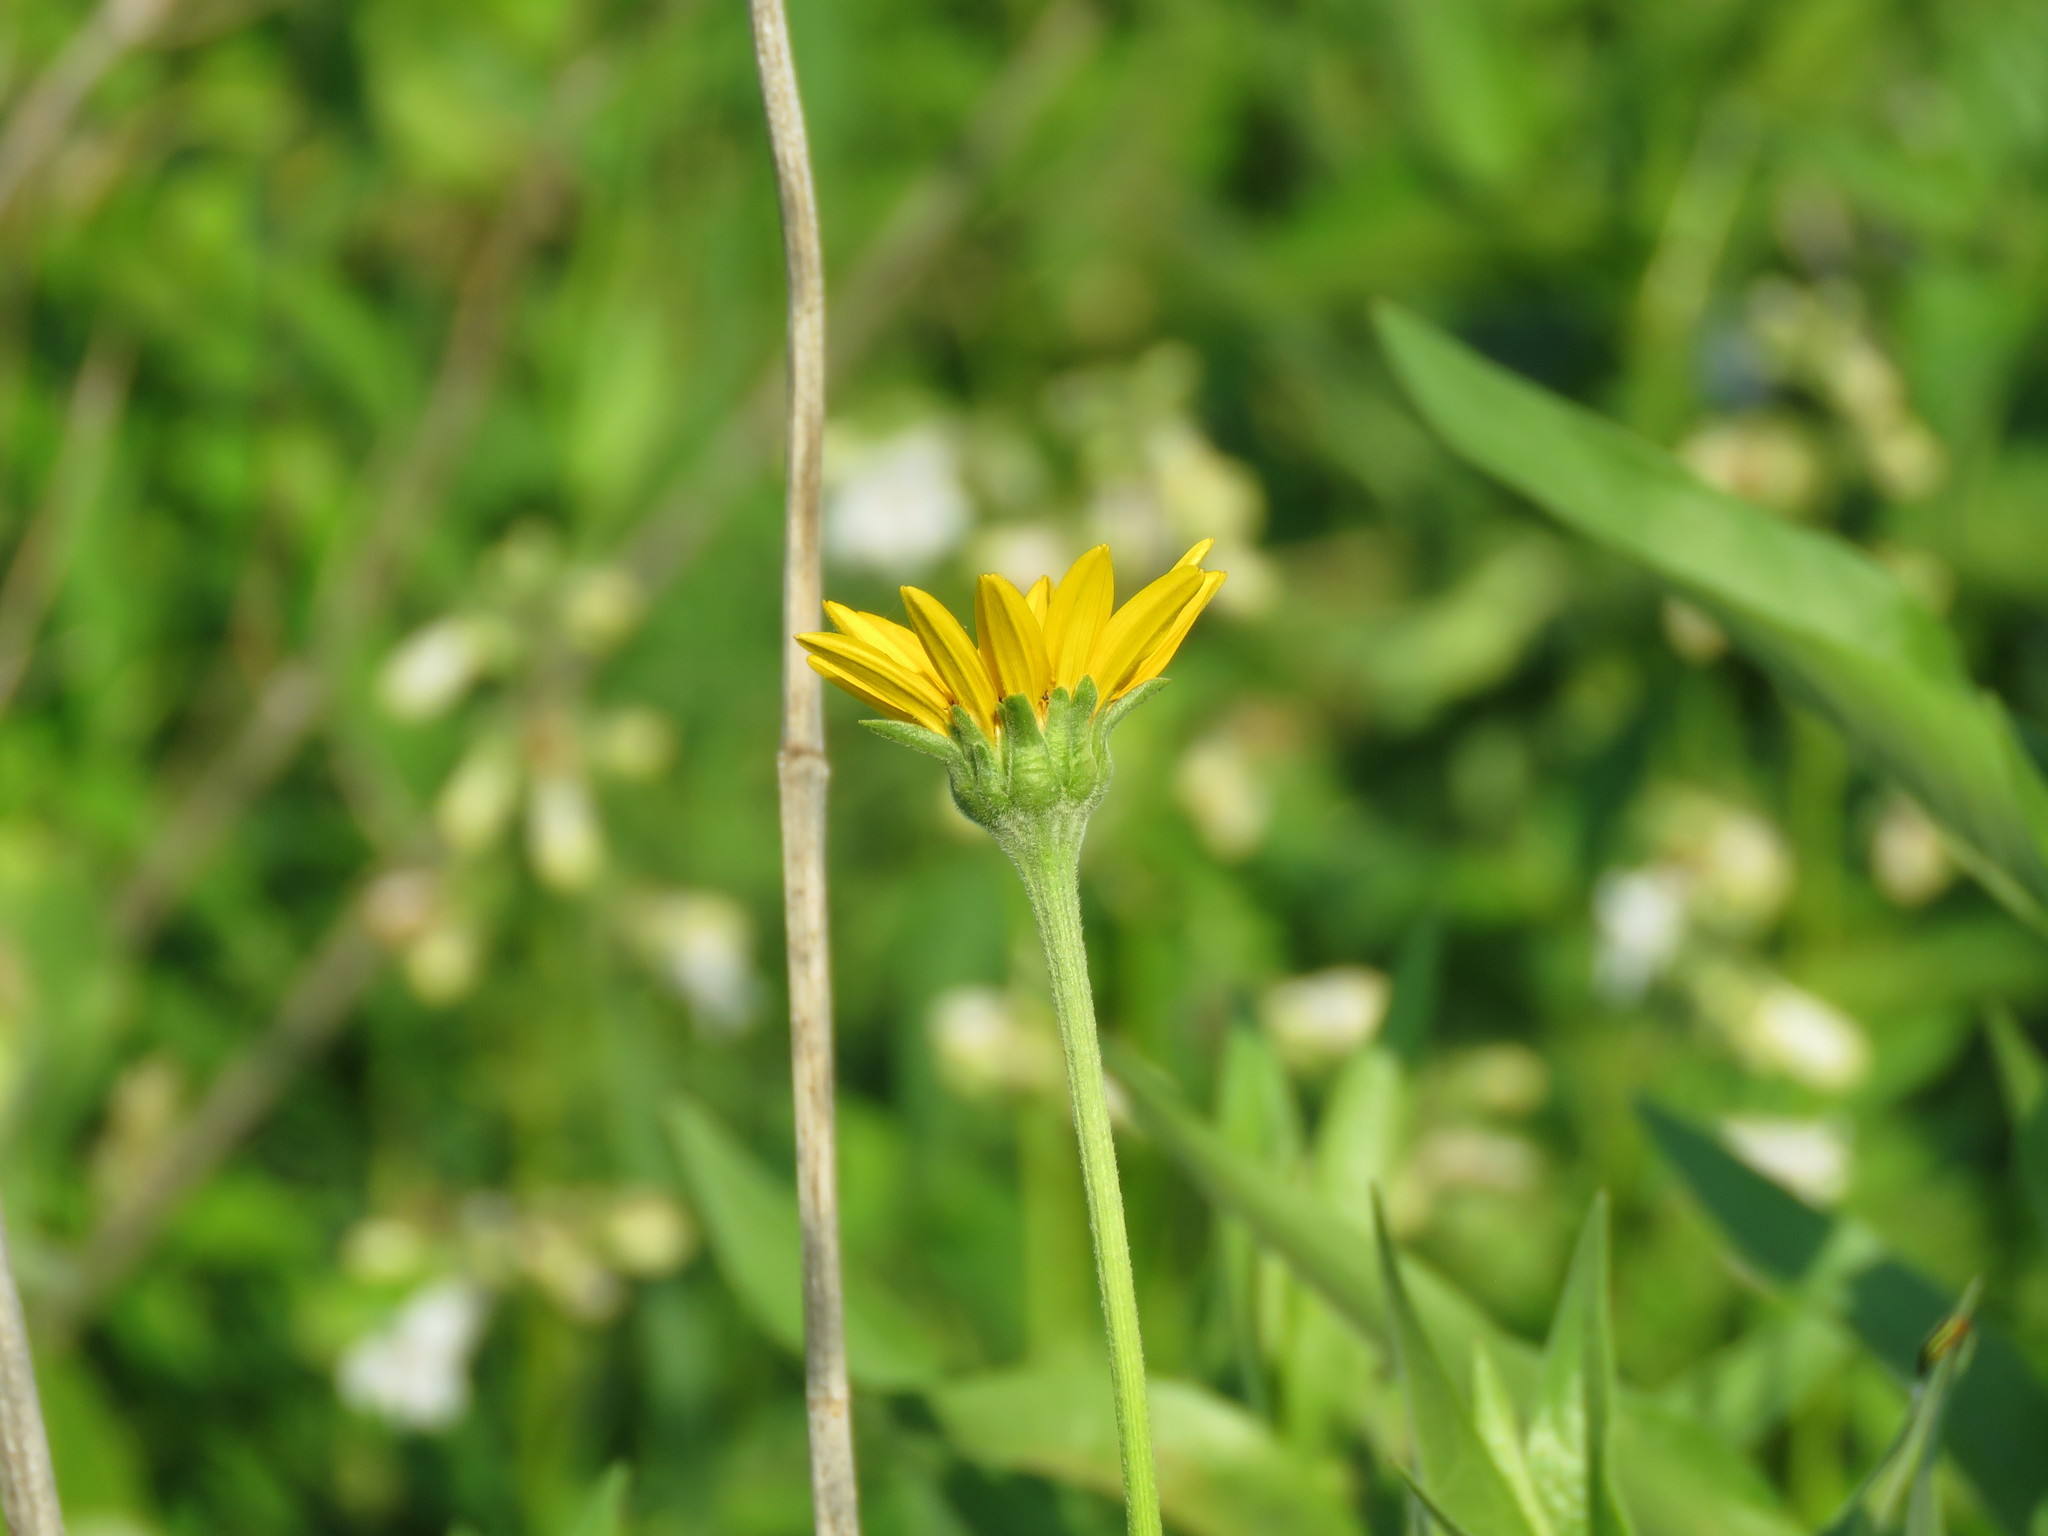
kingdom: Plantae
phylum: Tracheophyta
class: Magnoliopsida
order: Asterales
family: Asteraceae
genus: Heliopsis
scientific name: Heliopsis helianthoides
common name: False sunflower
